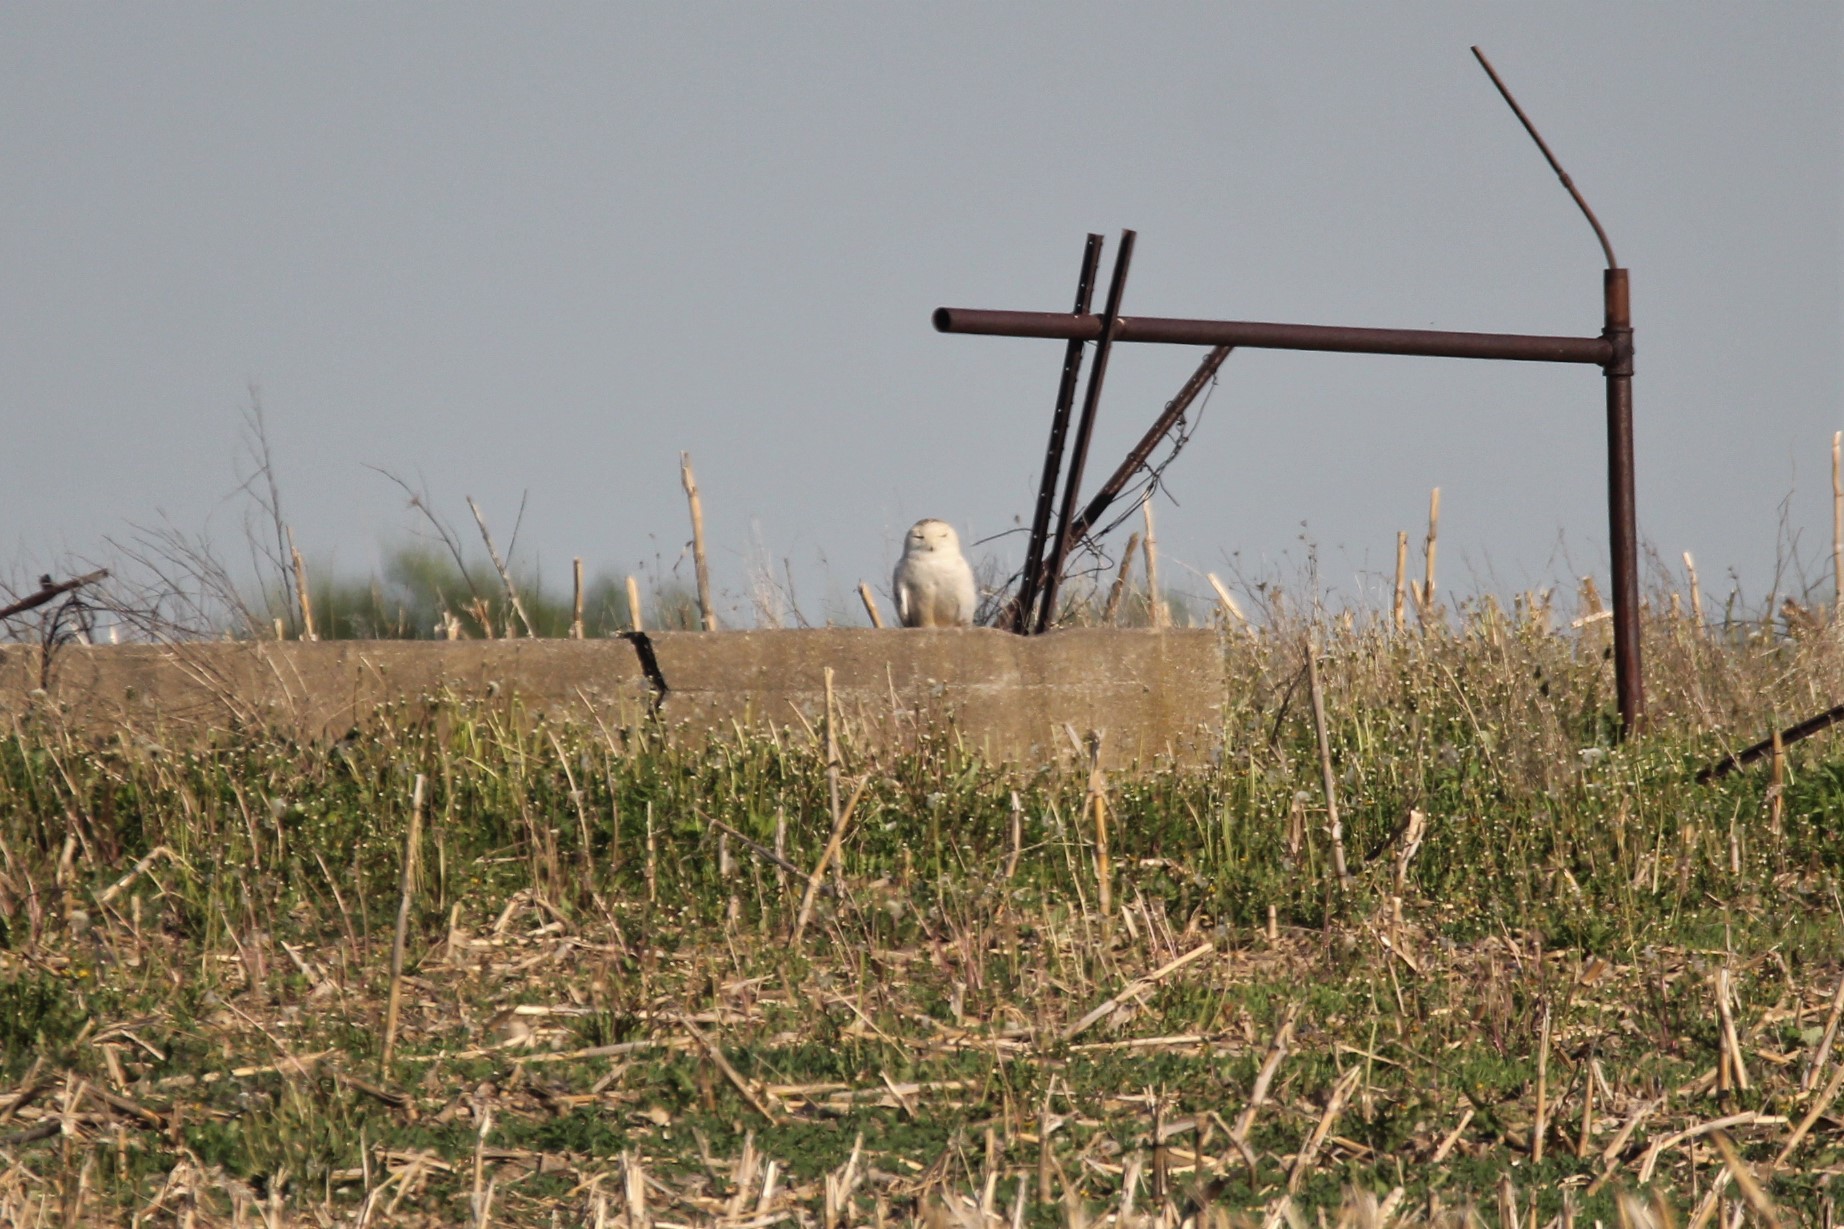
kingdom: Animalia
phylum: Chordata
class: Aves
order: Strigiformes
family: Strigidae
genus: Bubo
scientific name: Bubo scandiacus
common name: Snowy owl
